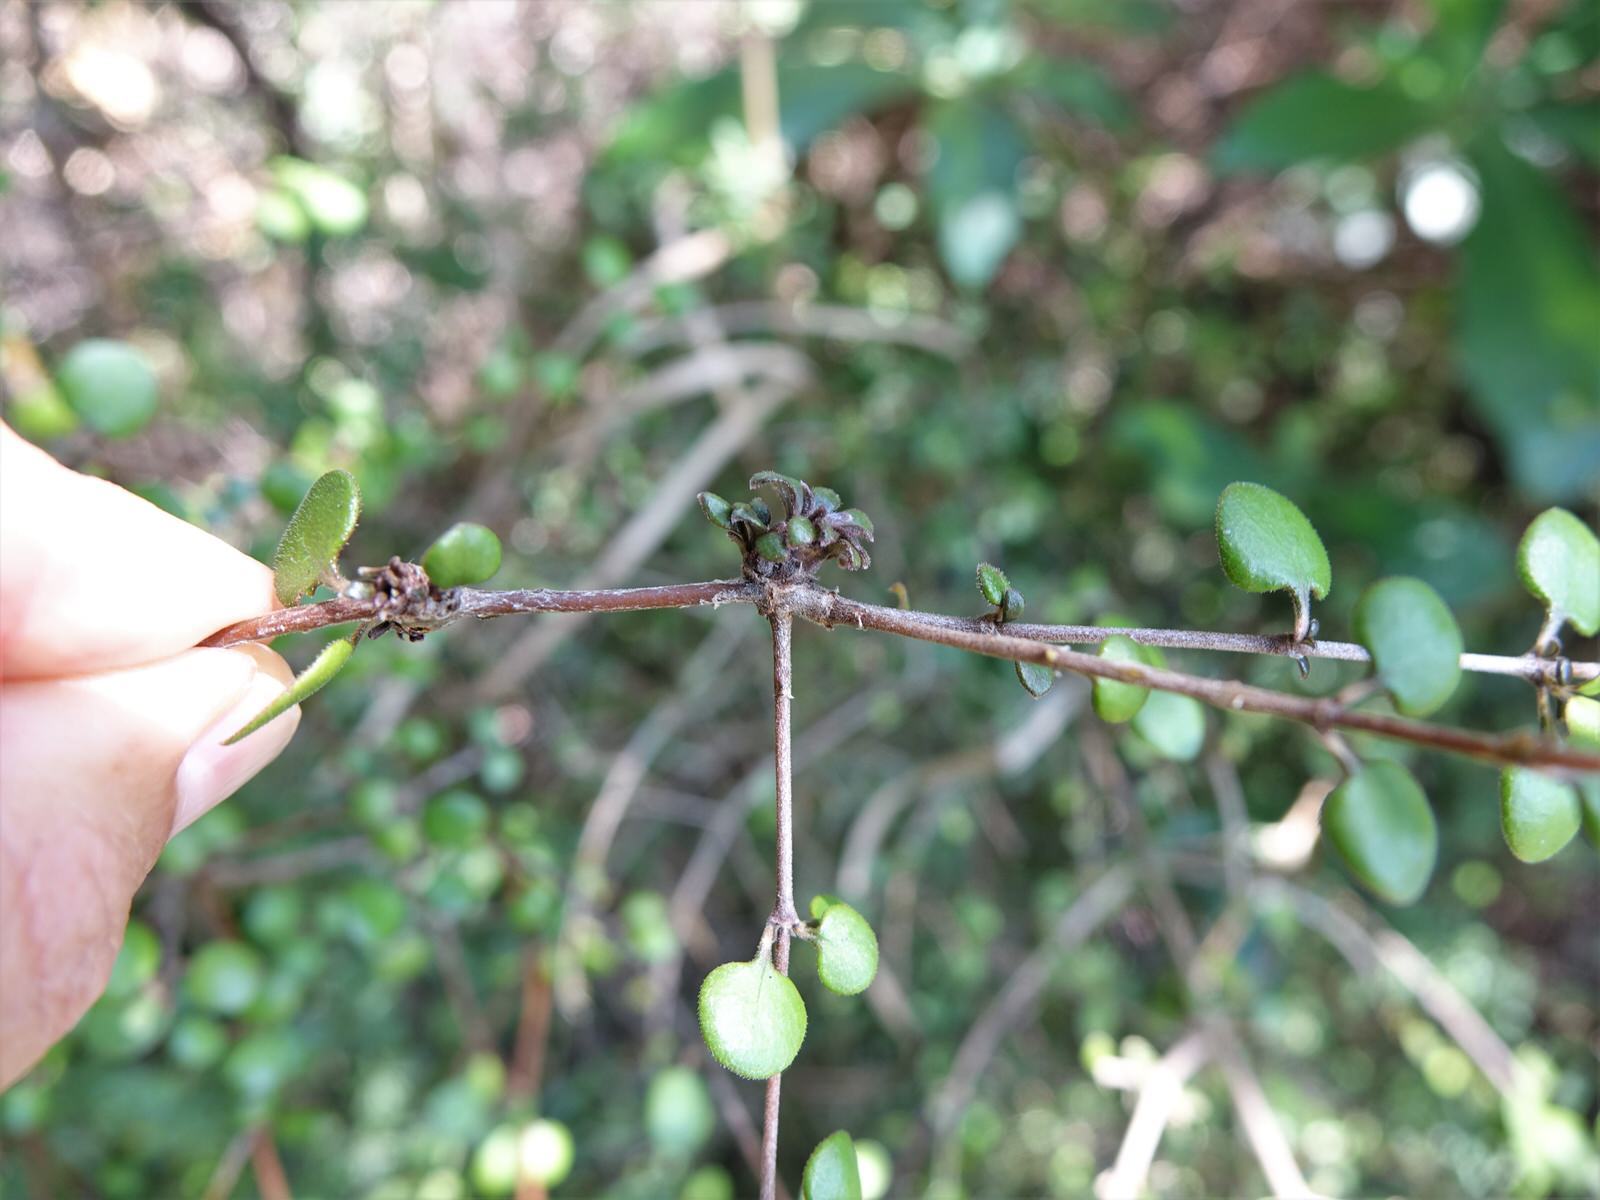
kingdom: Plantae
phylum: Tracheophyta
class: Magnoliopsida
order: Gentianales
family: Rubiaceae
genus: Coprosma
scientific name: Coprosma crassifolia
